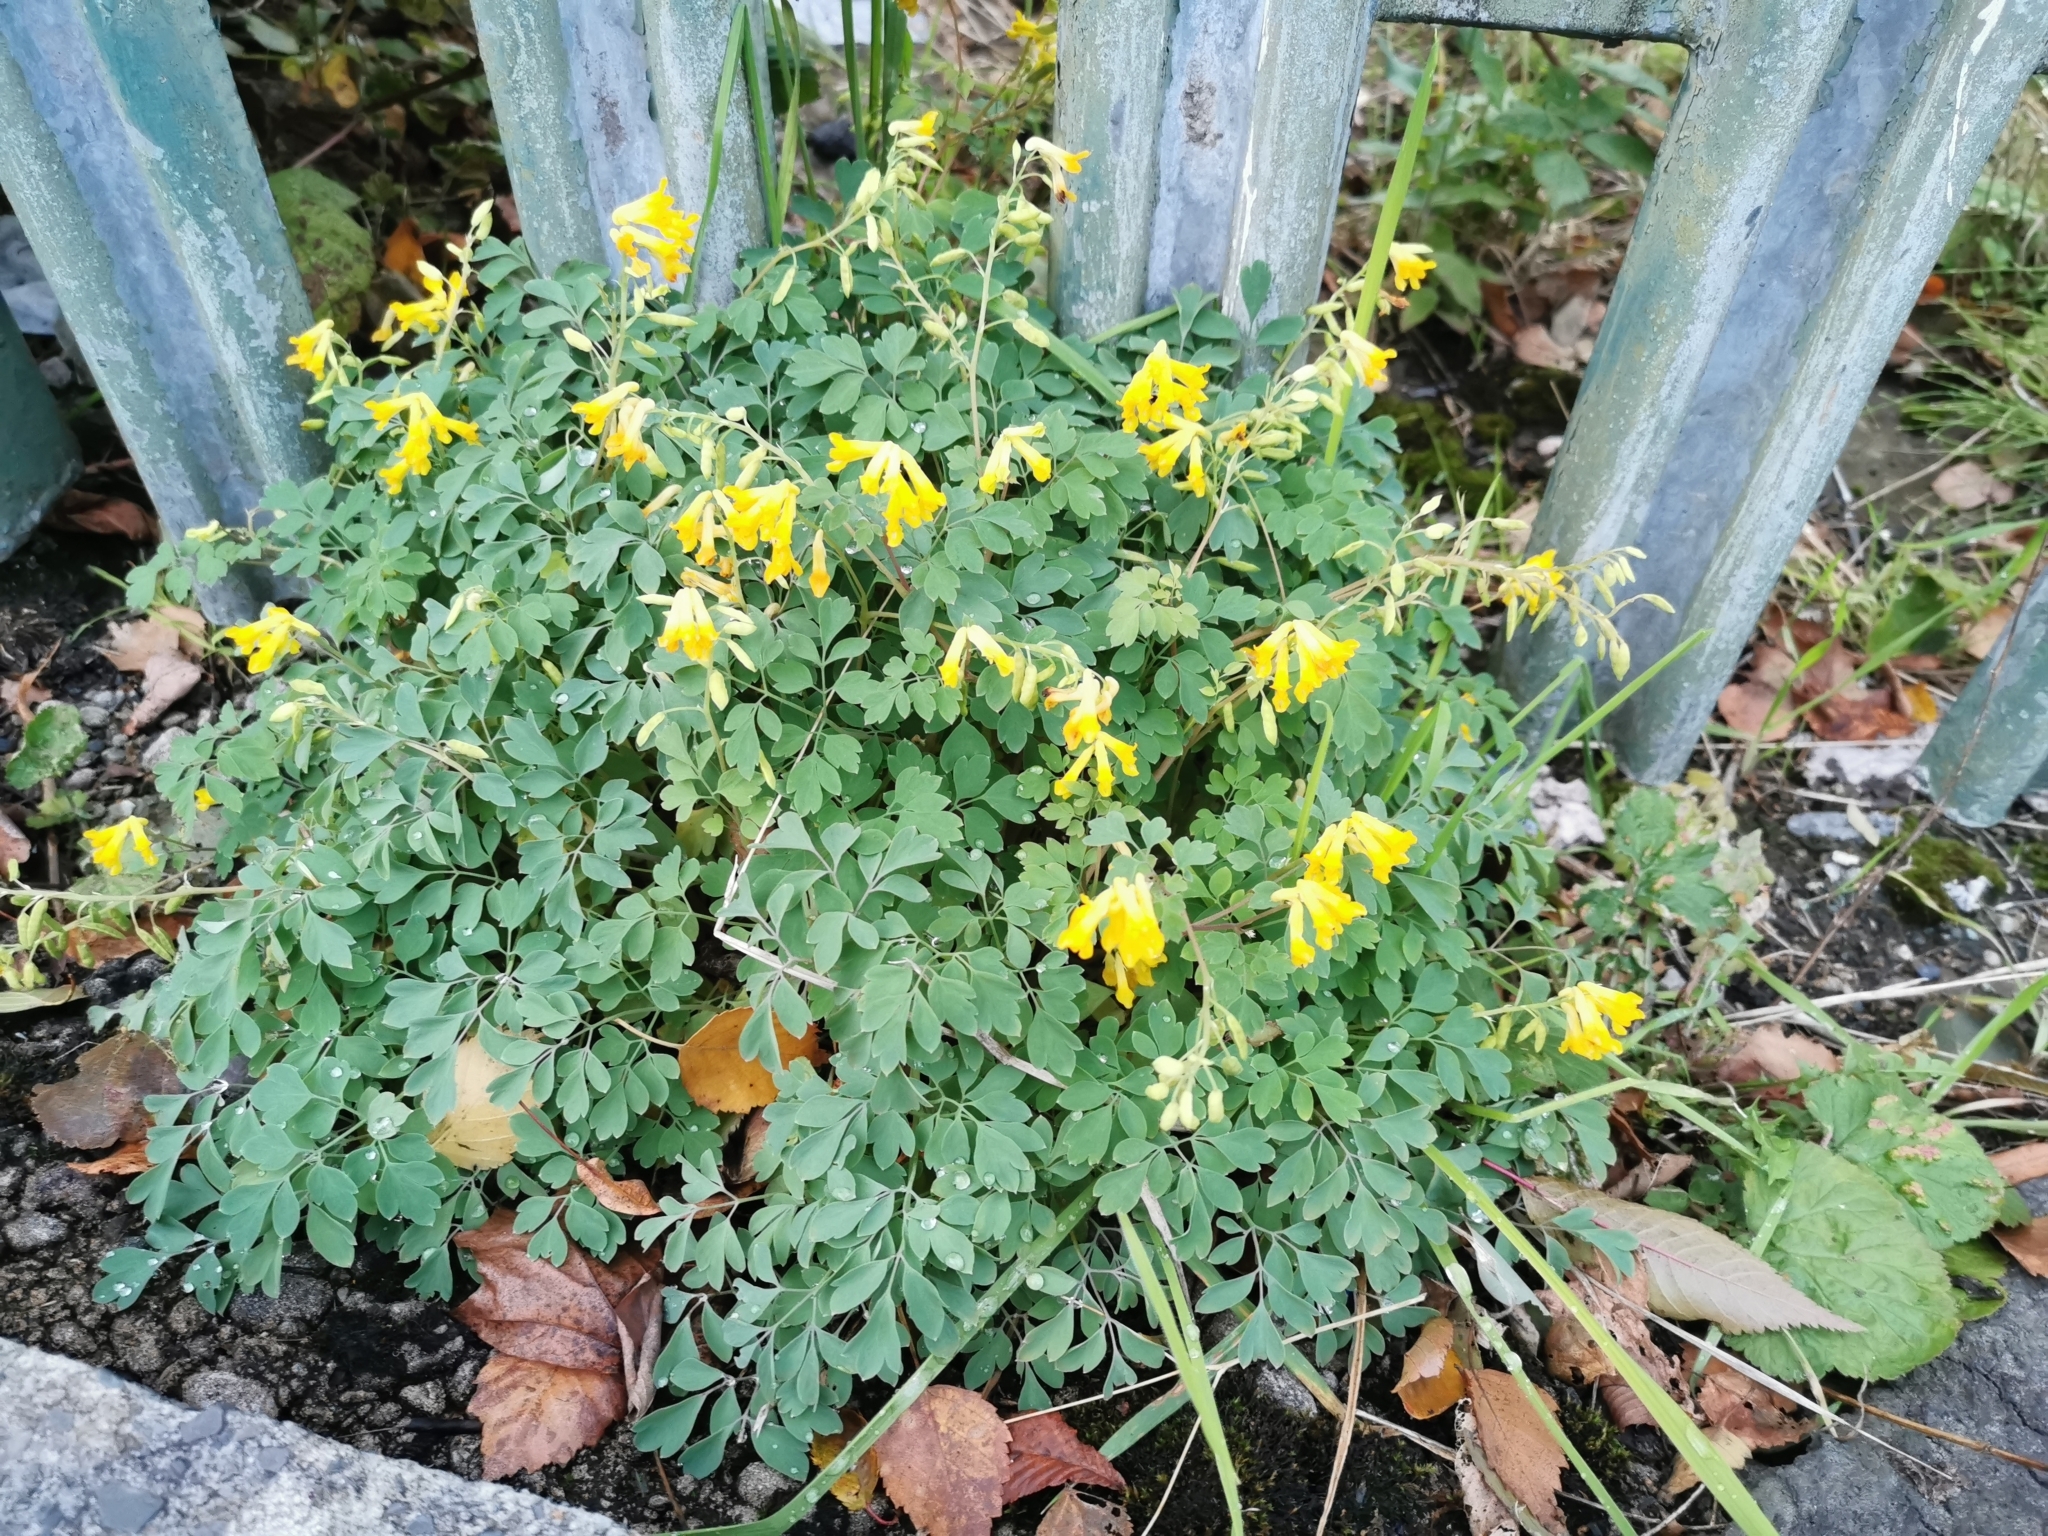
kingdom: Plantae
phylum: Tracheophyta
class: Magnoliopsida
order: Ranunculales
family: Papaveraceae
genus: Pseudofumaria
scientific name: Pseudofumaria lutea
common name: Yellow corydalis
